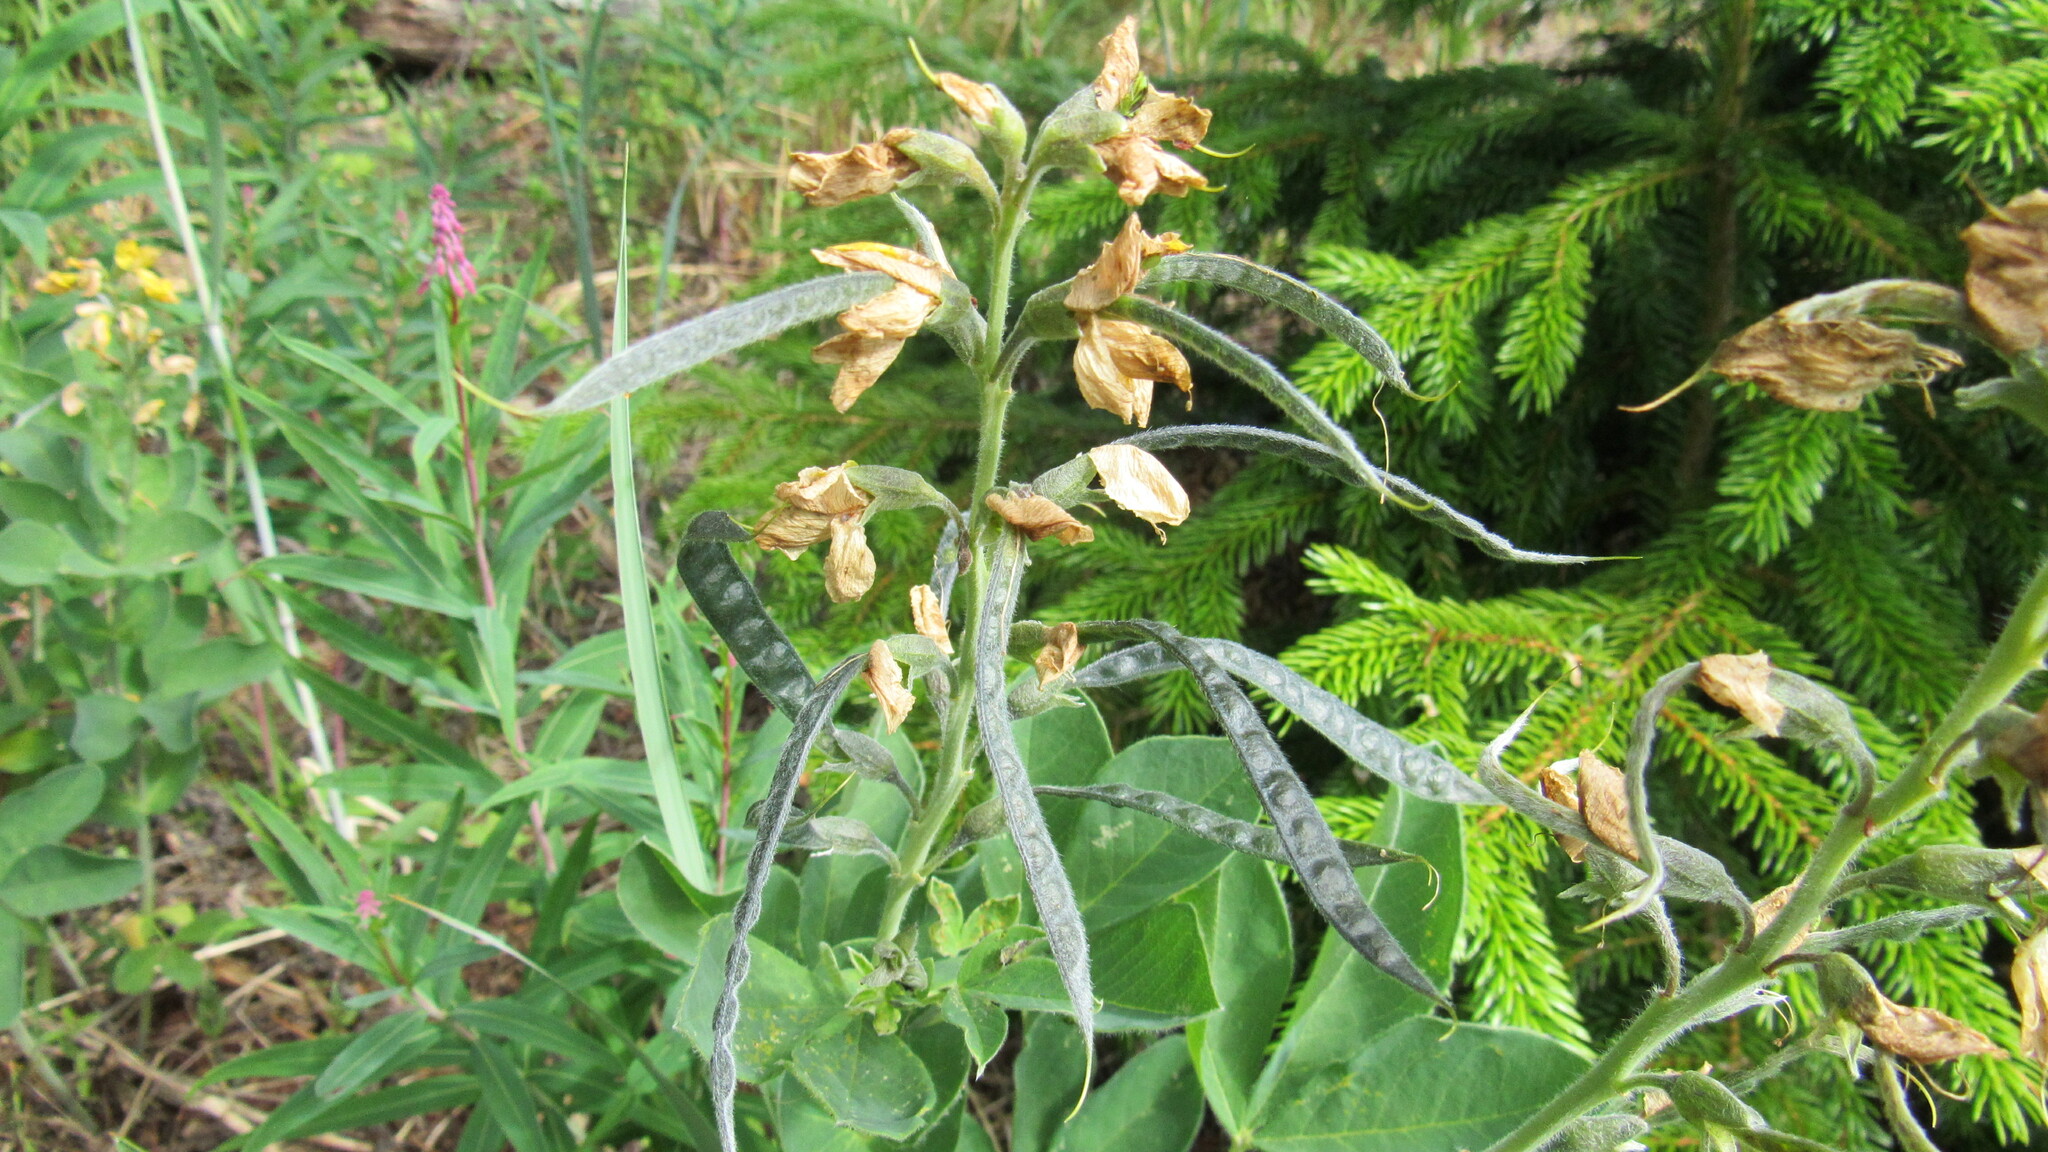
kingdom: Plantae
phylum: Tracheophyta
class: Magnoliopsida
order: Fabales
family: Fabaceae
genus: Thermopsis
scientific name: Thermopsis lanceolata
